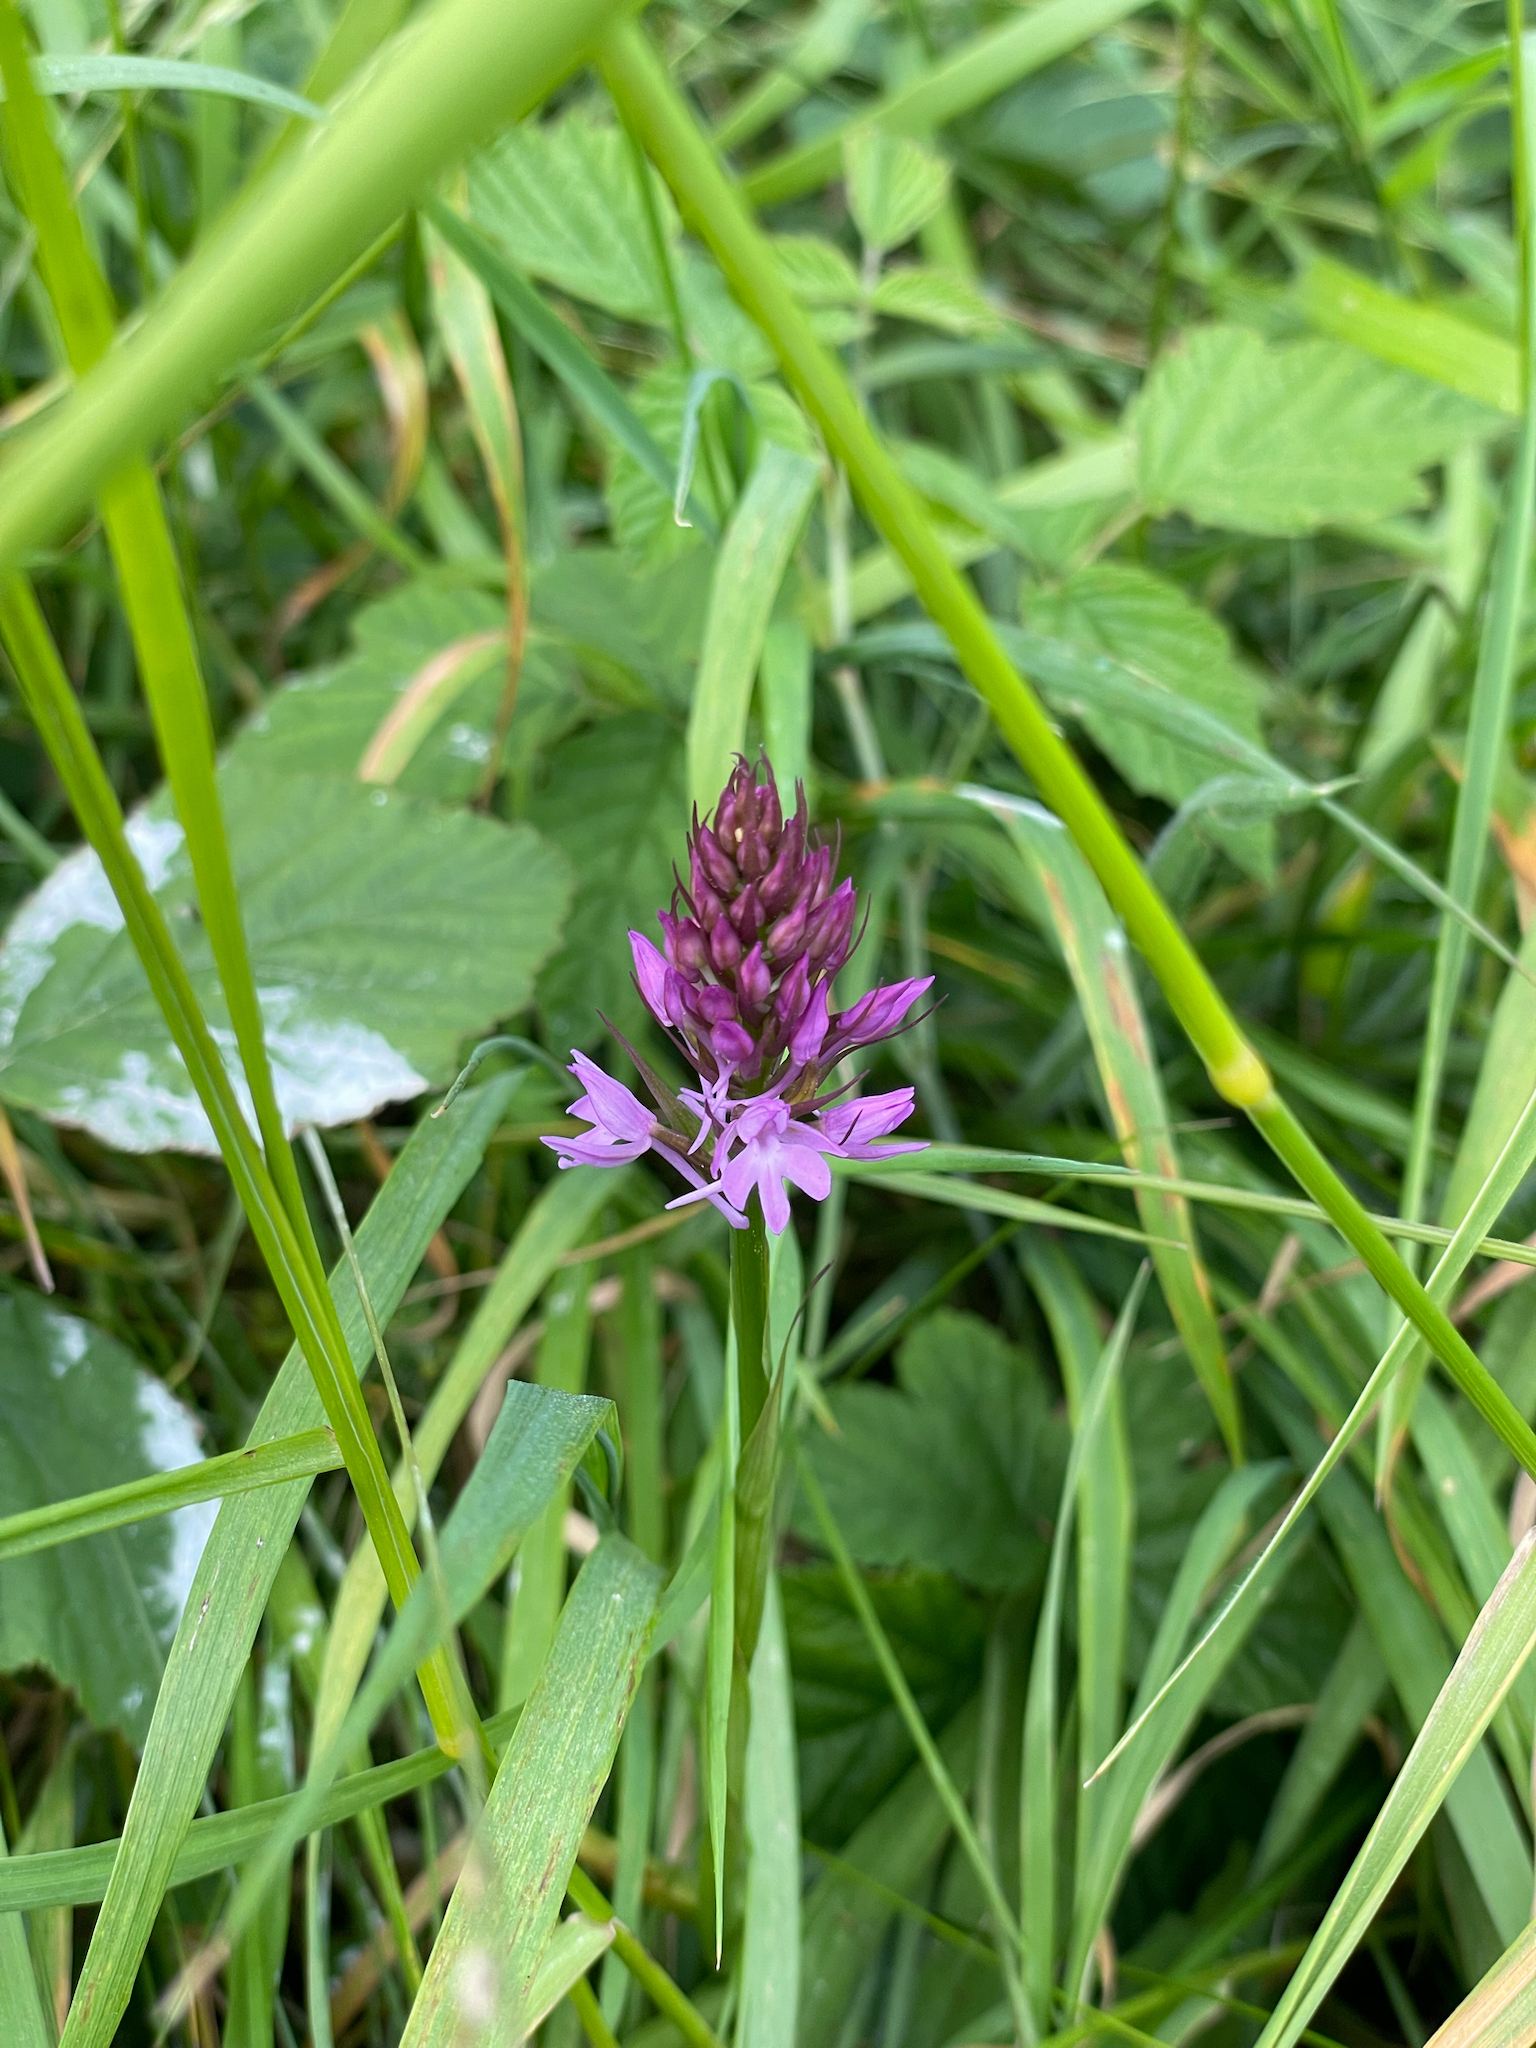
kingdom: Plantae
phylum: Tracheophyta
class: Liliopsida
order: Asparagales
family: Orchidaceae
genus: Anacamptis
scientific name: Anacamptis pyramidalis
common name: Pyramidal orchid
